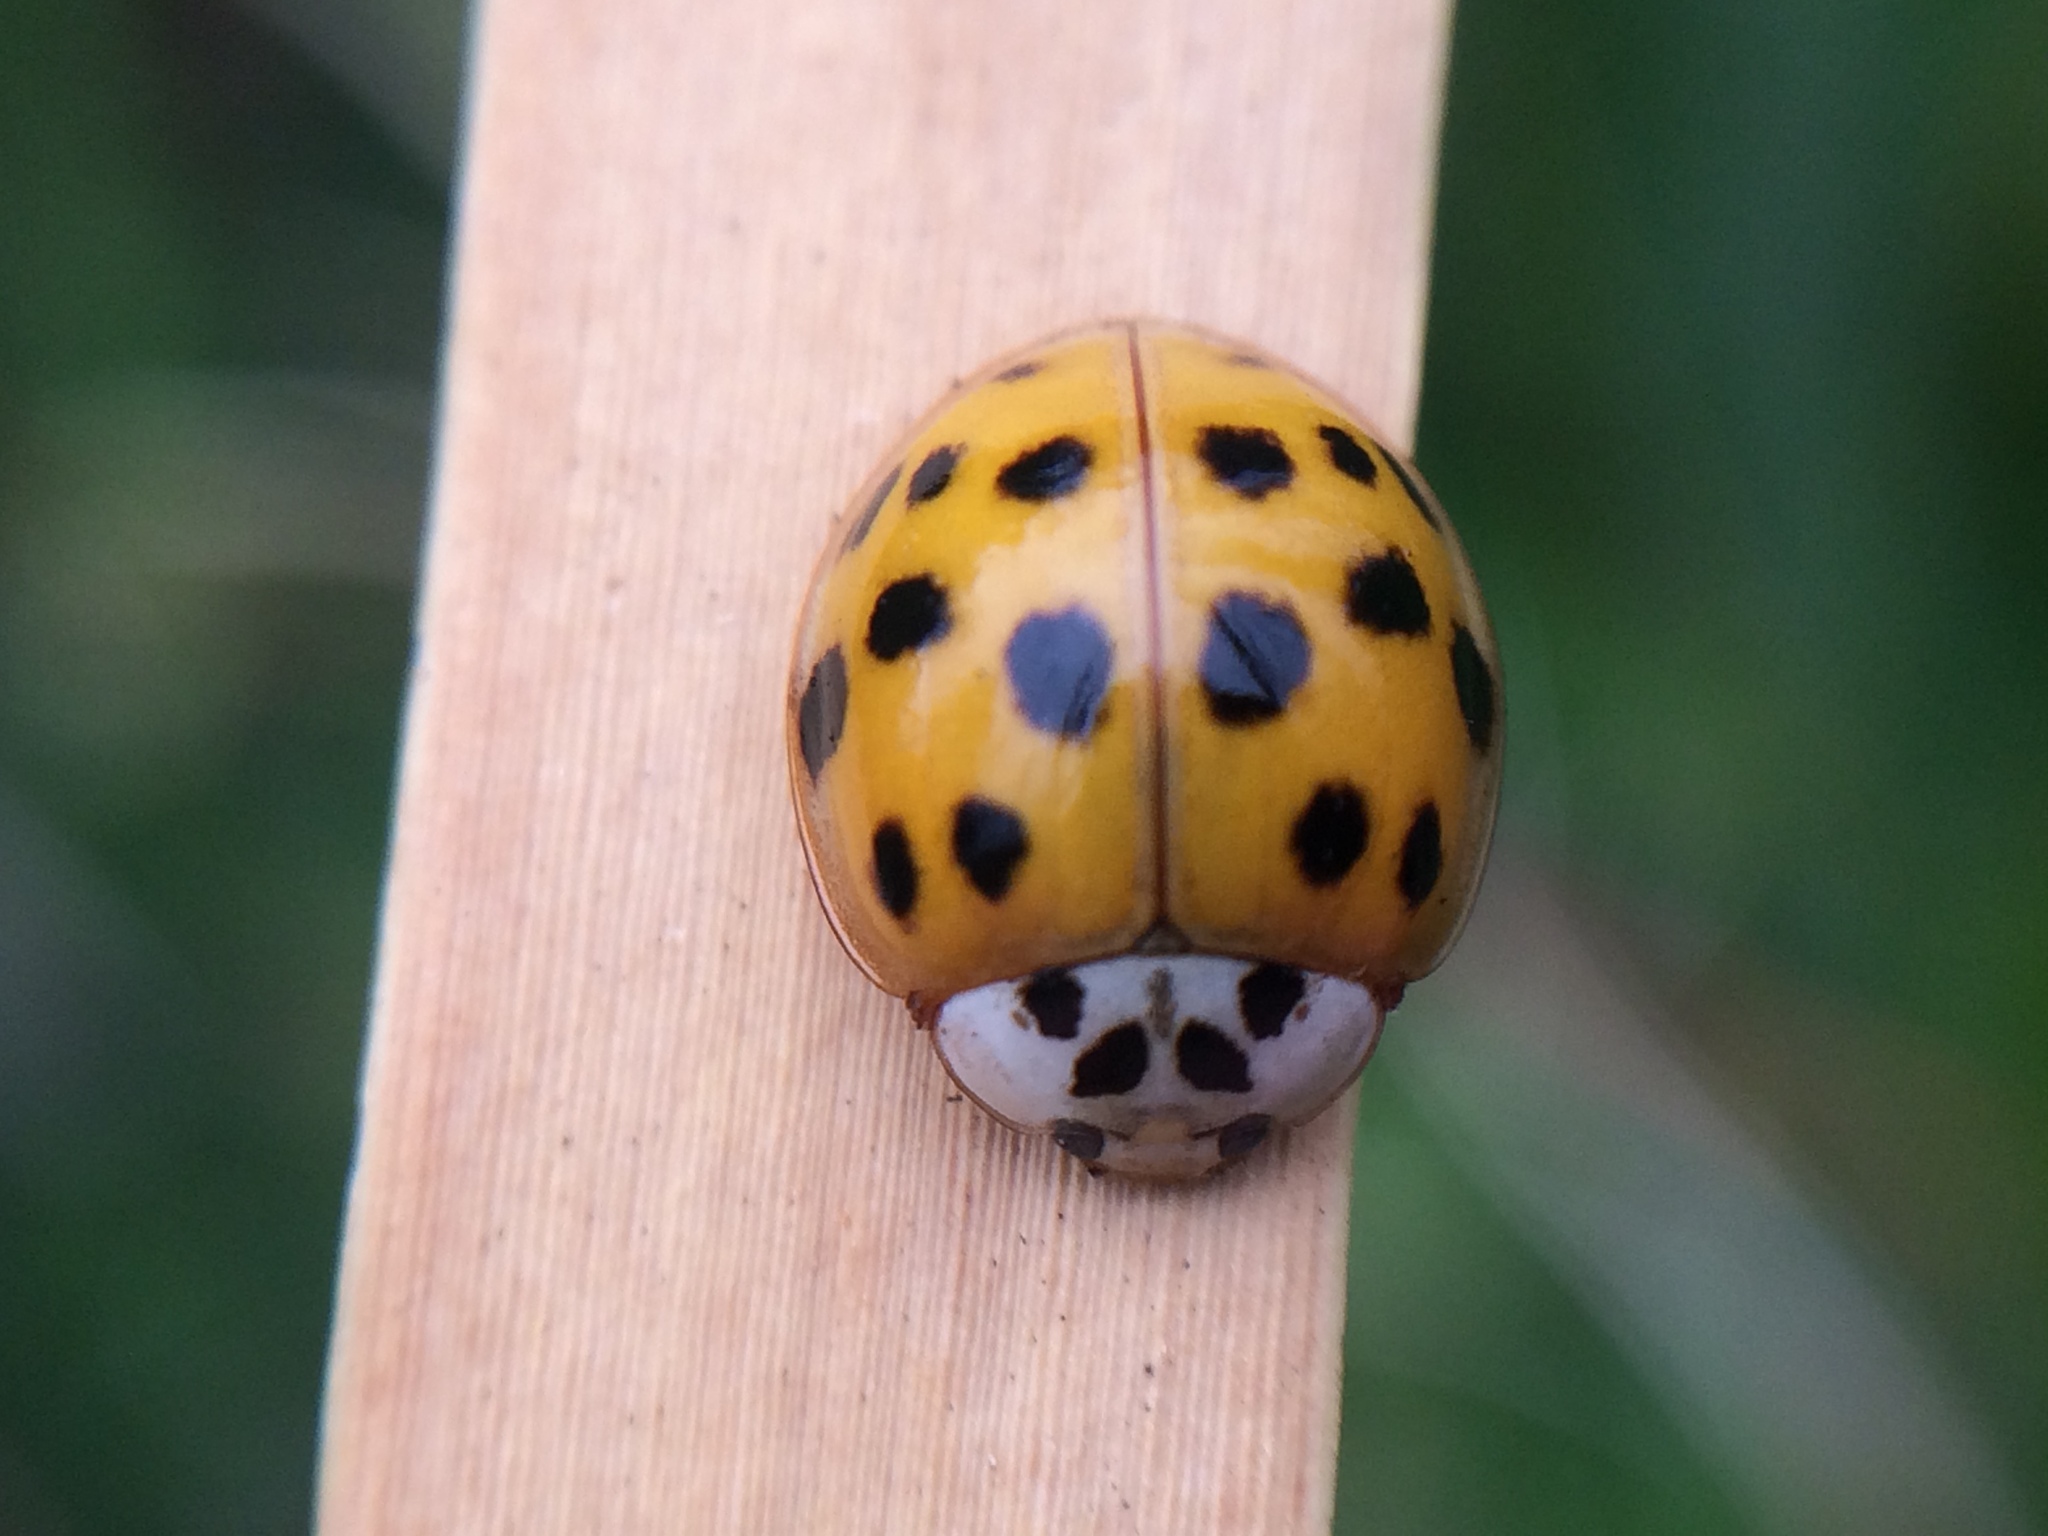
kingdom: Animalia
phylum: Arthropoda
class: Insecta
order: Coleoptera
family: Coccinellidae
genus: Harmonia
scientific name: Harmonia axyridis
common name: Harlequin ladybird
